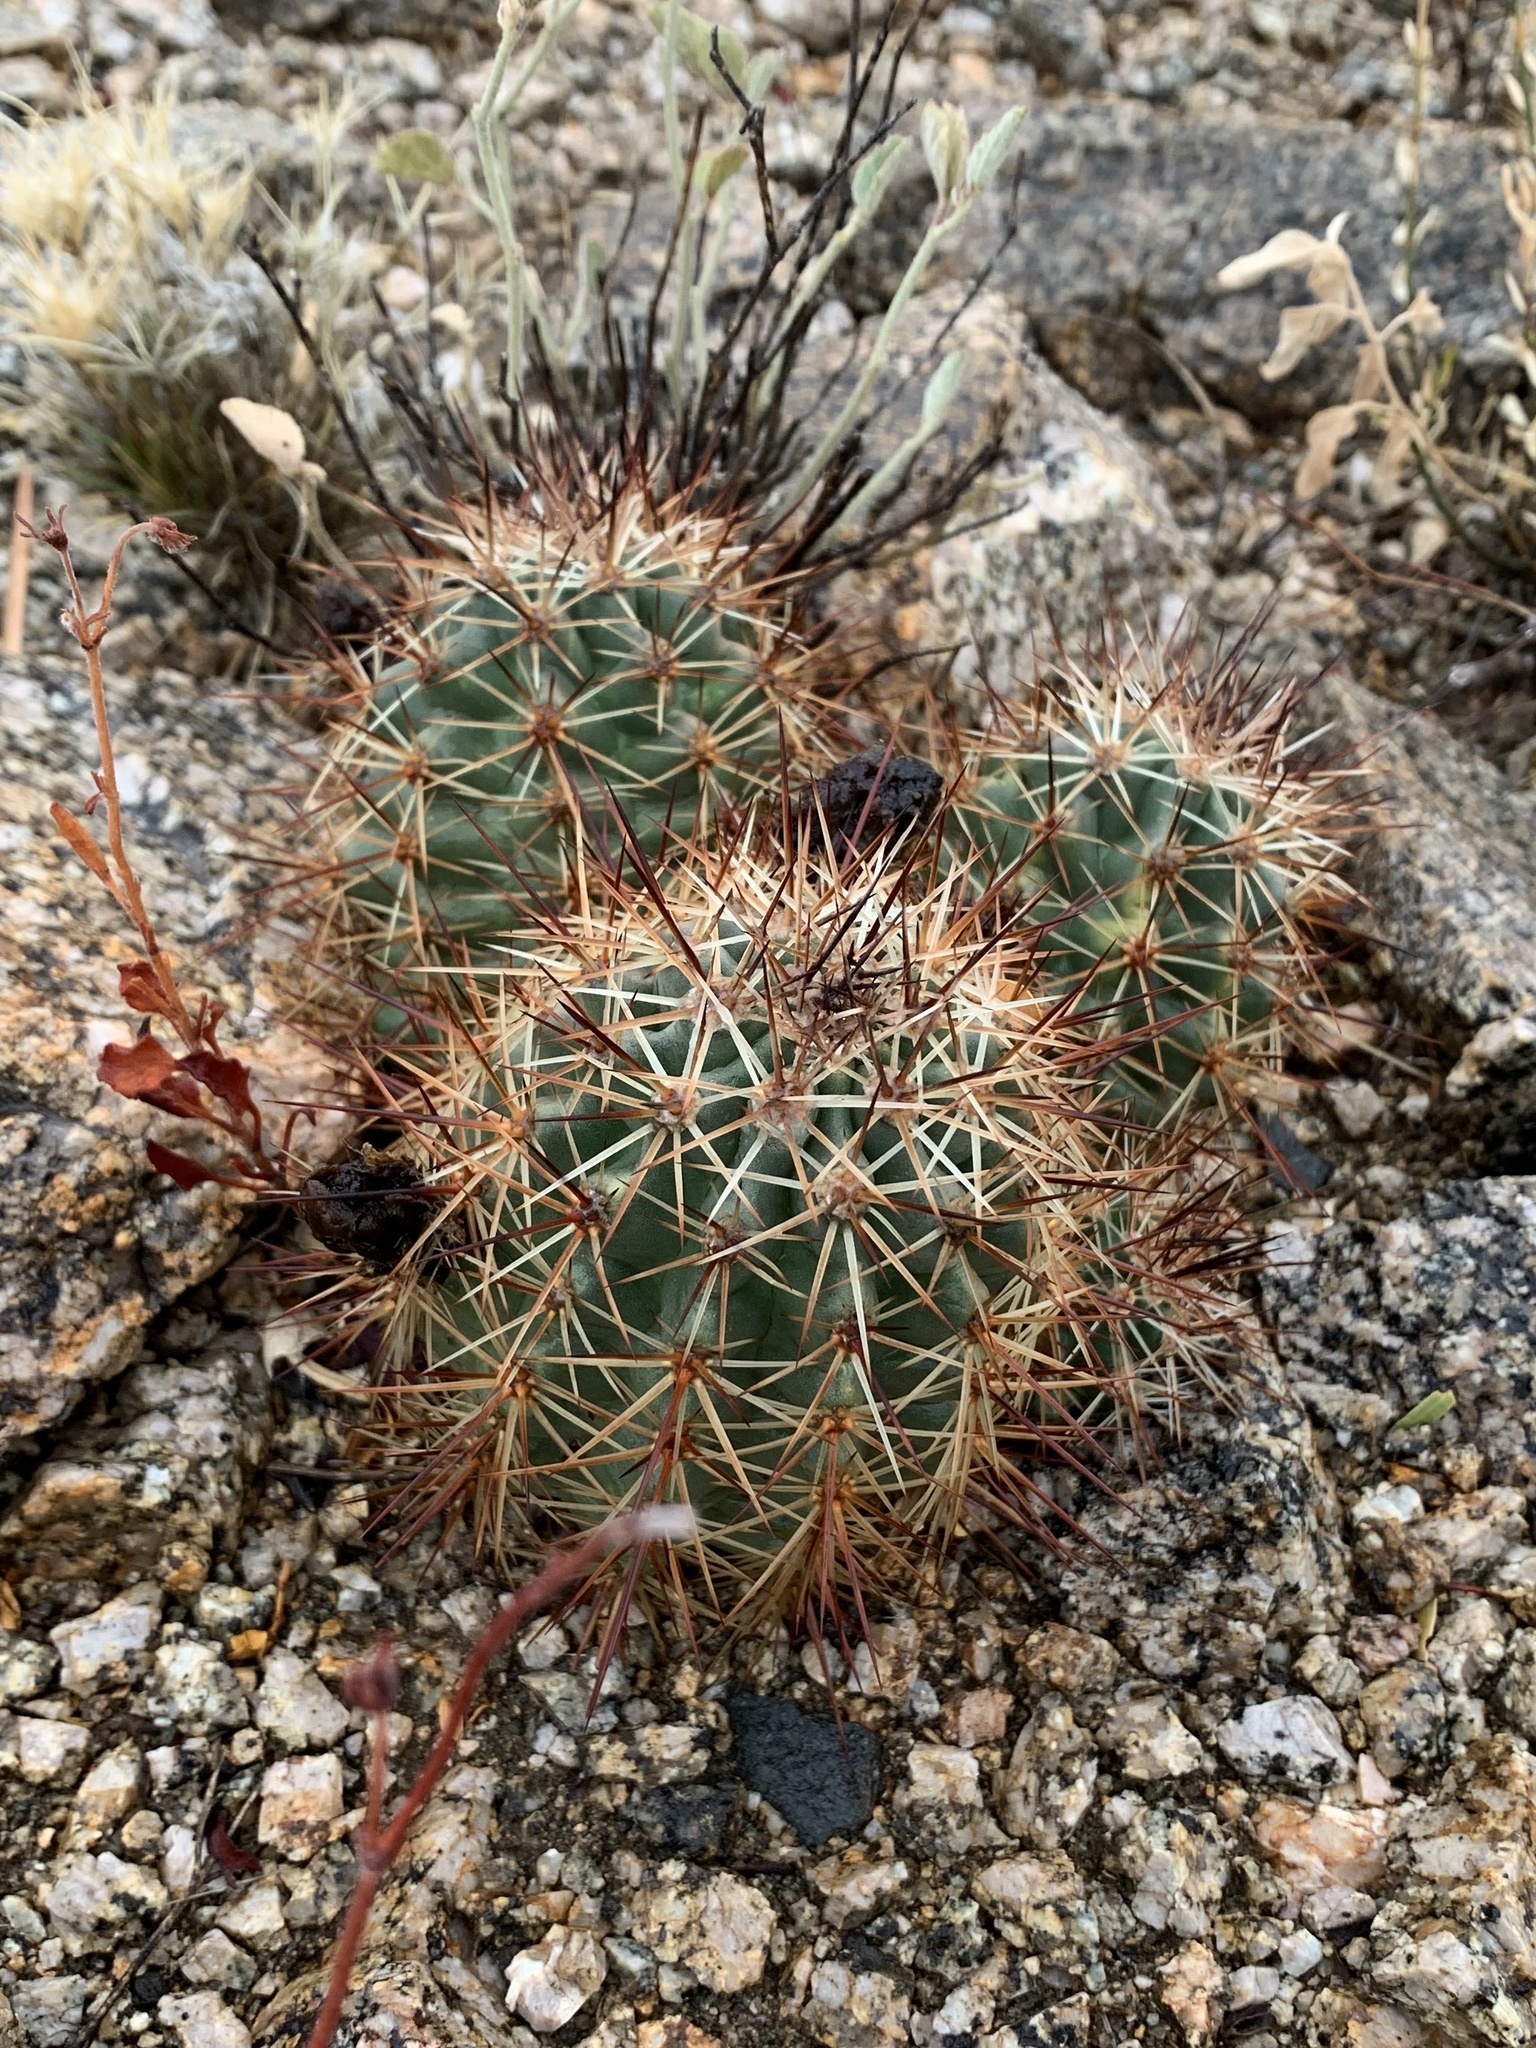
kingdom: Plantae
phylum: Tracheophyta
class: Magnoliopsida
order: Caryophyllales
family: Cactaceae
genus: Echinocereus
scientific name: Echinocereus coccineus
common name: Scarlet hedgehog cactus
